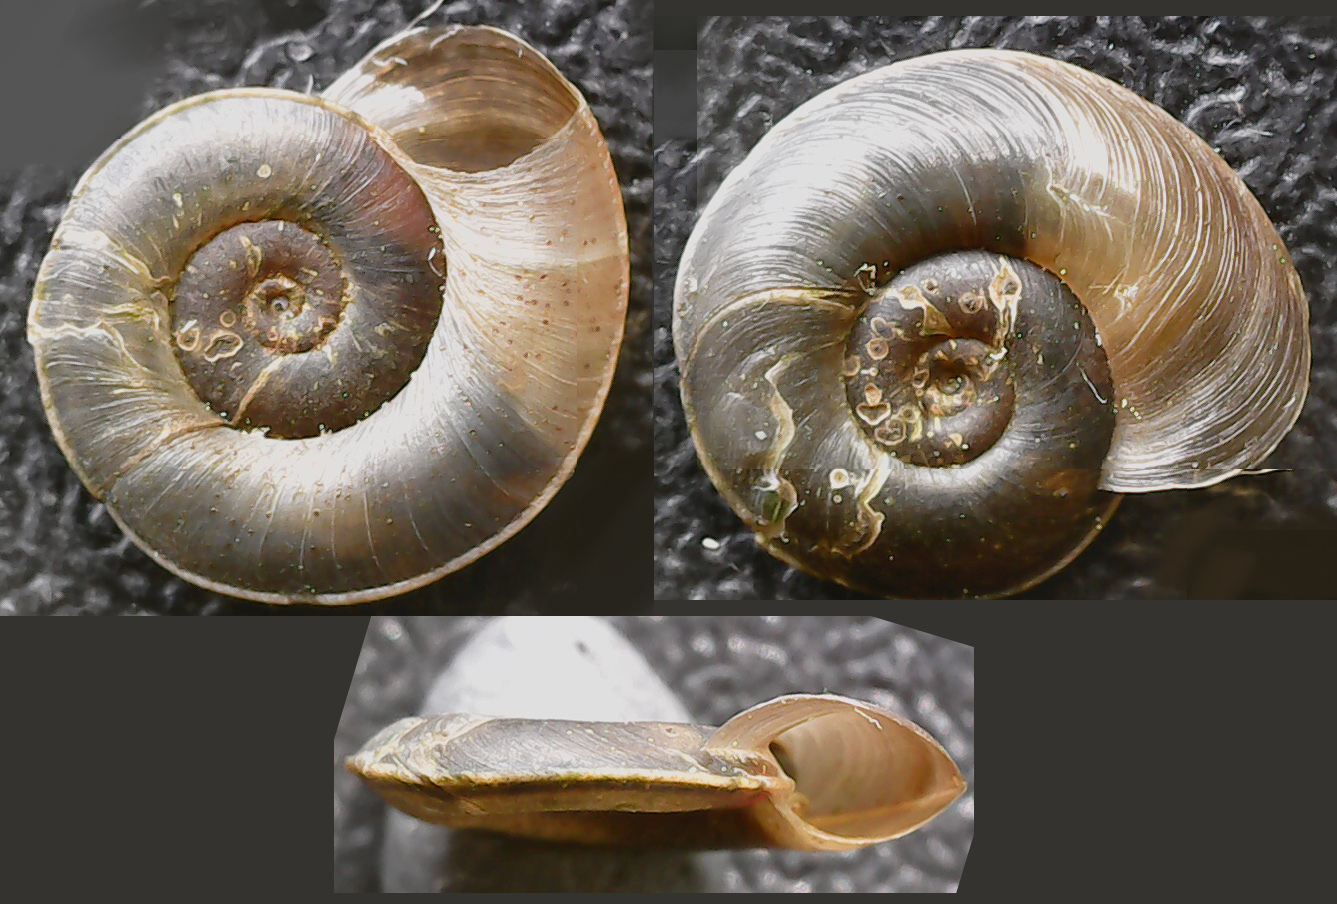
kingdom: Animalia
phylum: Mollusca
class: Gastropoda
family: Planorbidae
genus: Planorbis
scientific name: Planorbis carinatus
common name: Keeled ramshorn
